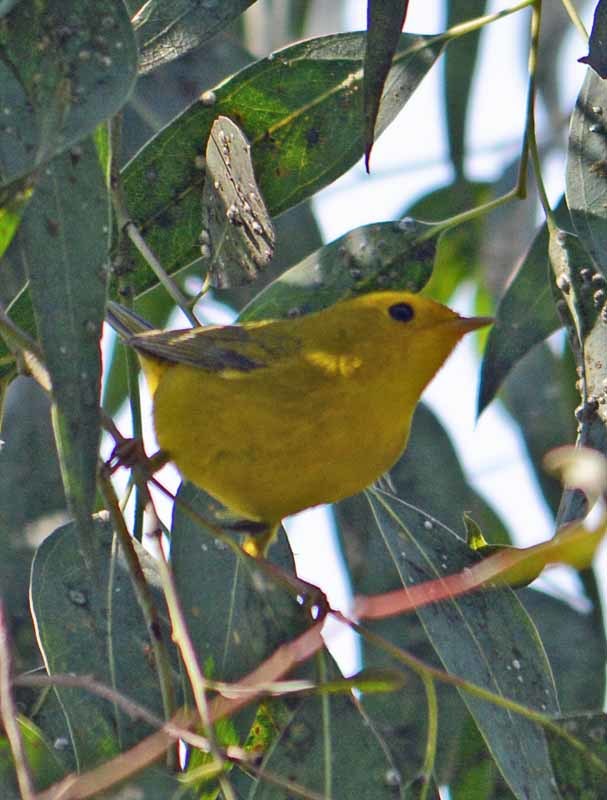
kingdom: Animalia
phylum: Chordata
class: Aves
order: Passeriformes
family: Parulidae
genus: Cardellina
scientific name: Cardellina pusilla
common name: Wilson's warbler
